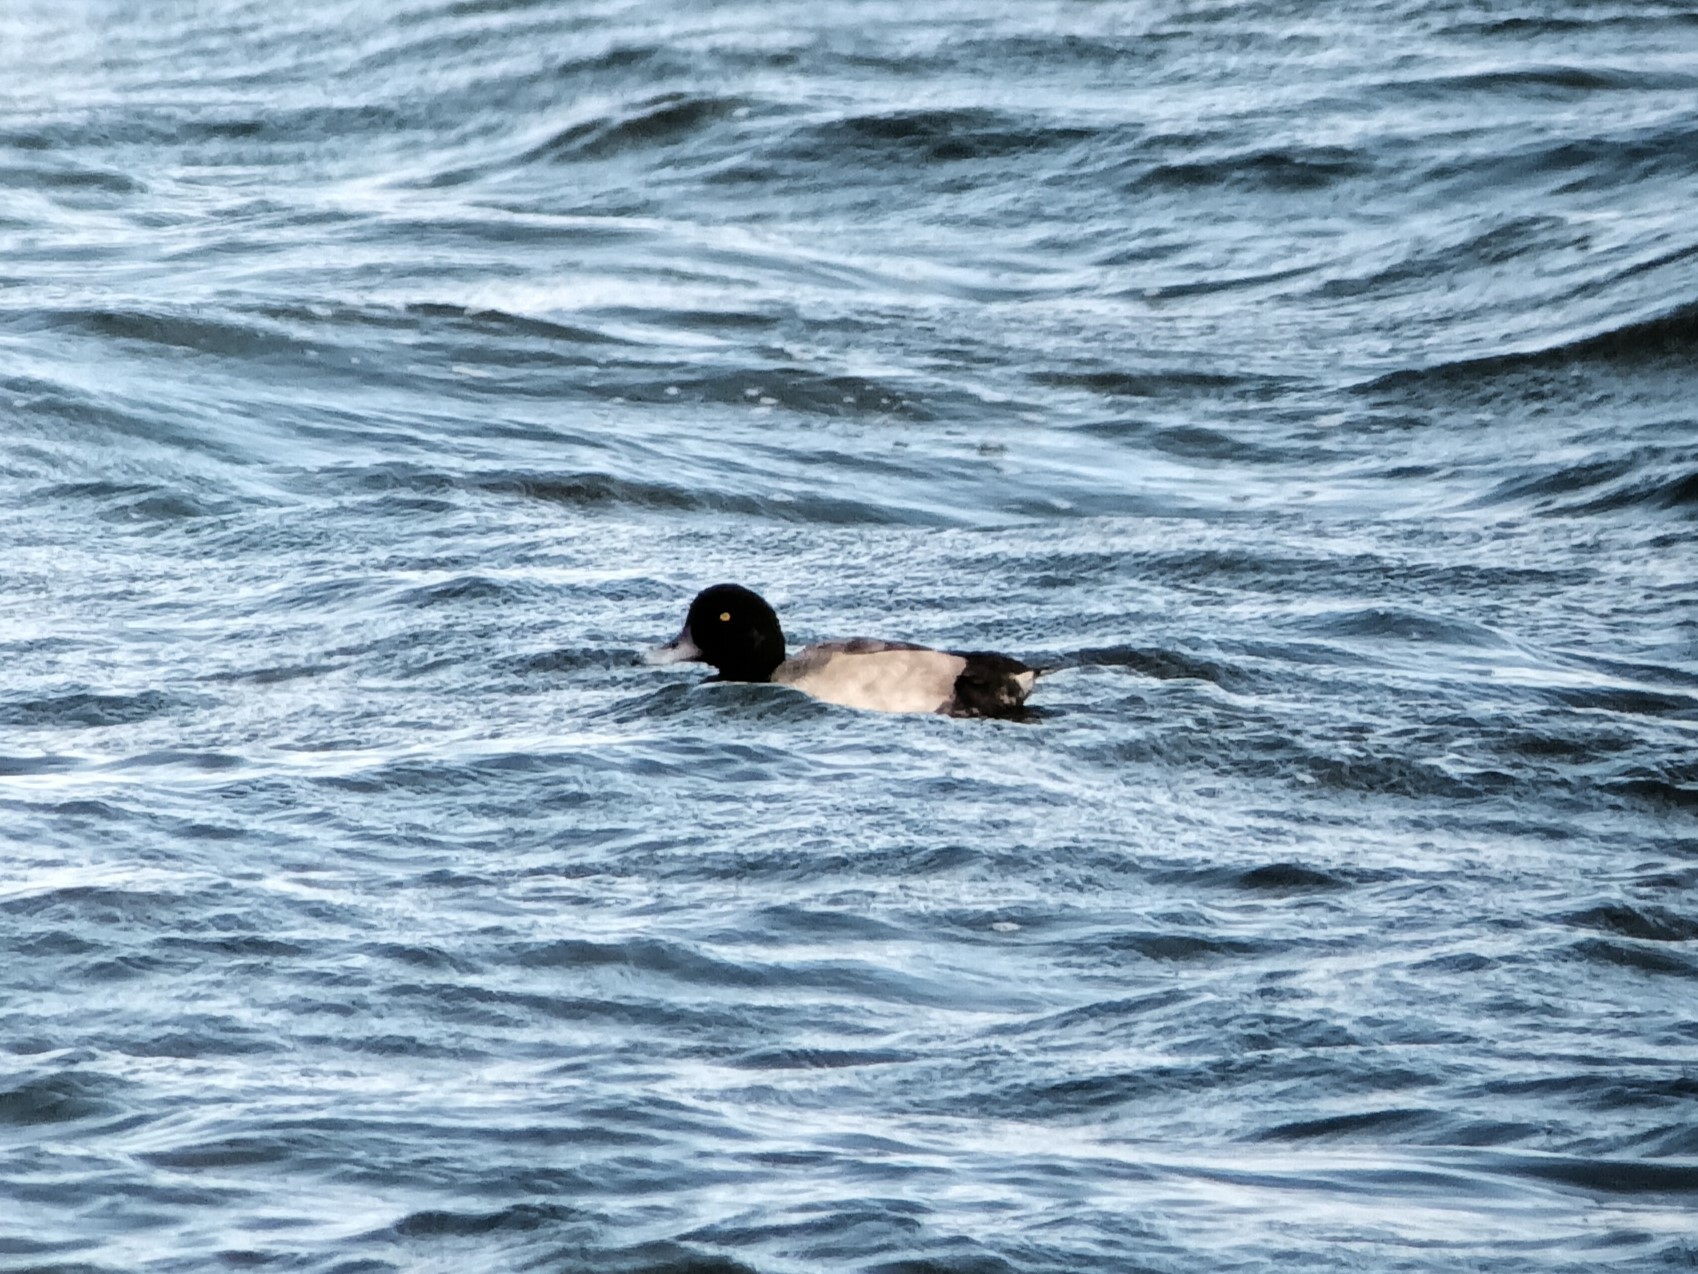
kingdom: Animalia
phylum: Chordata
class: Aves
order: Anseriformes
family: Anatidae
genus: Aythya
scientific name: Aythya marila
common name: Greater scaup
